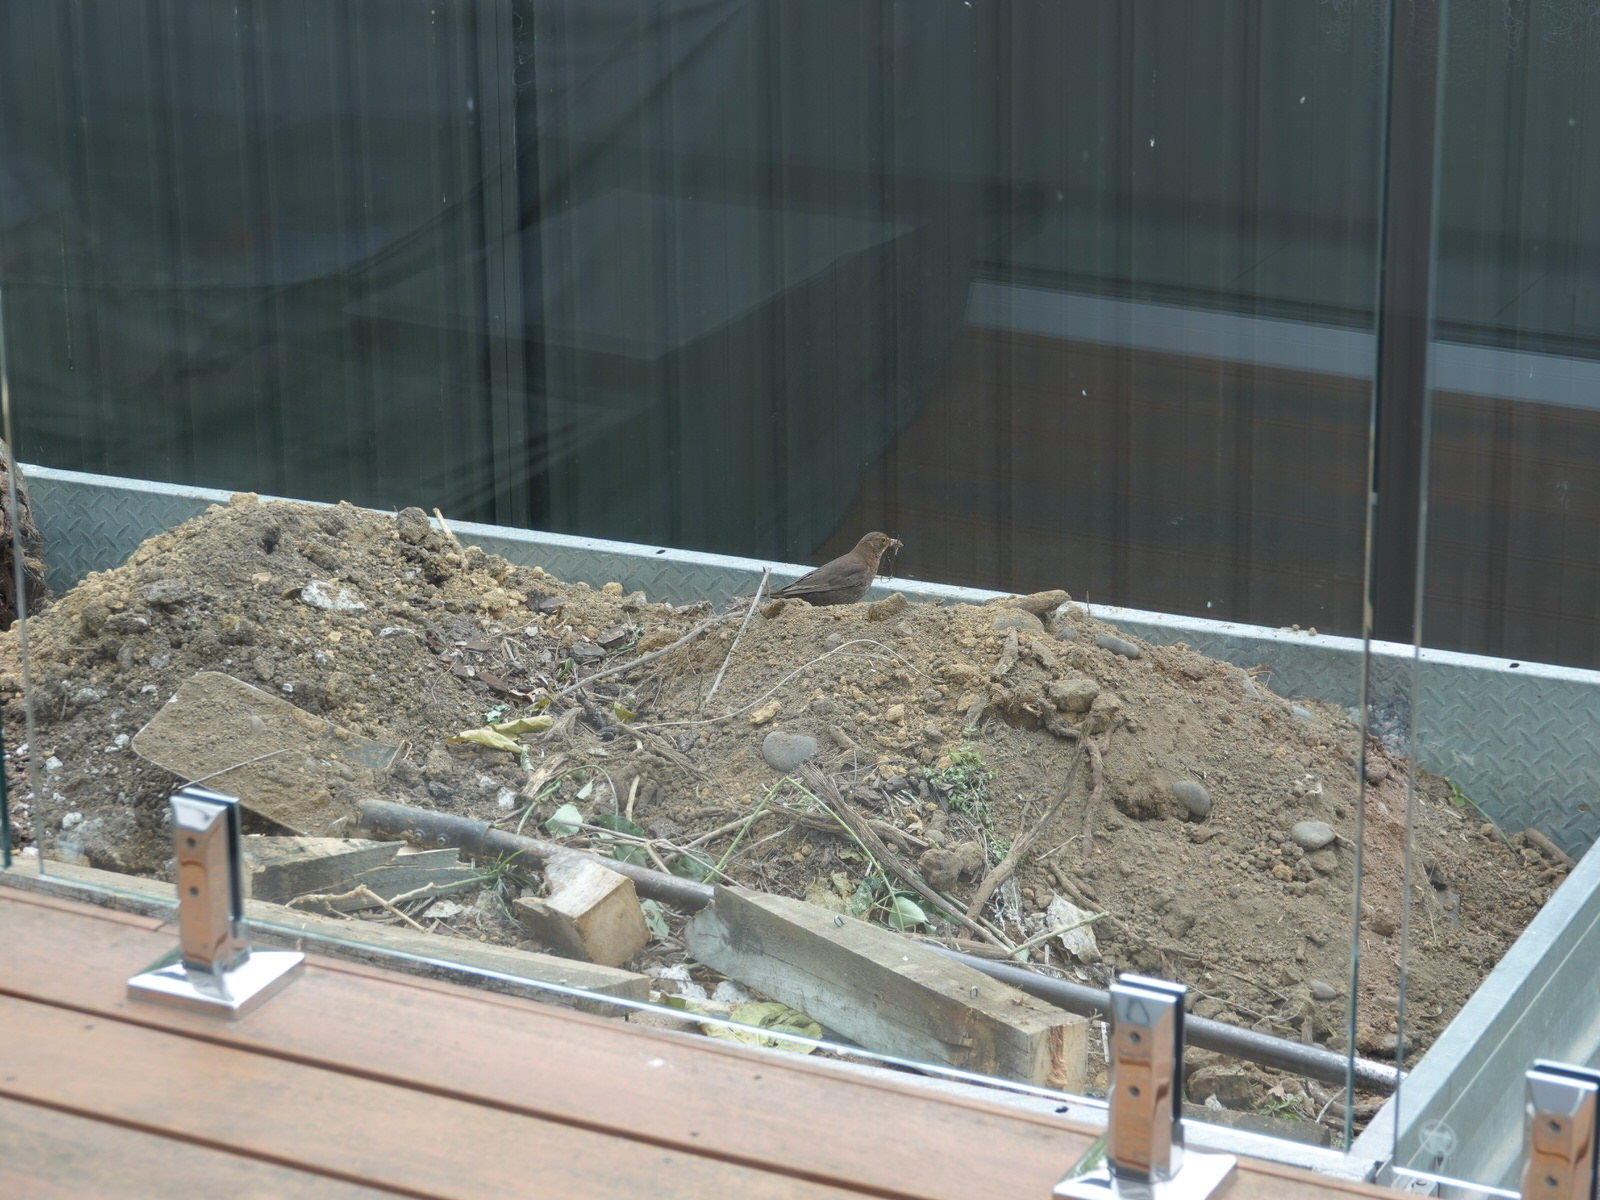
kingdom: Animalia
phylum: Chordata
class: Aves
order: Passeriformes
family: Turdidae
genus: Turdus
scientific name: Turdus merula
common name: Common blackbird
